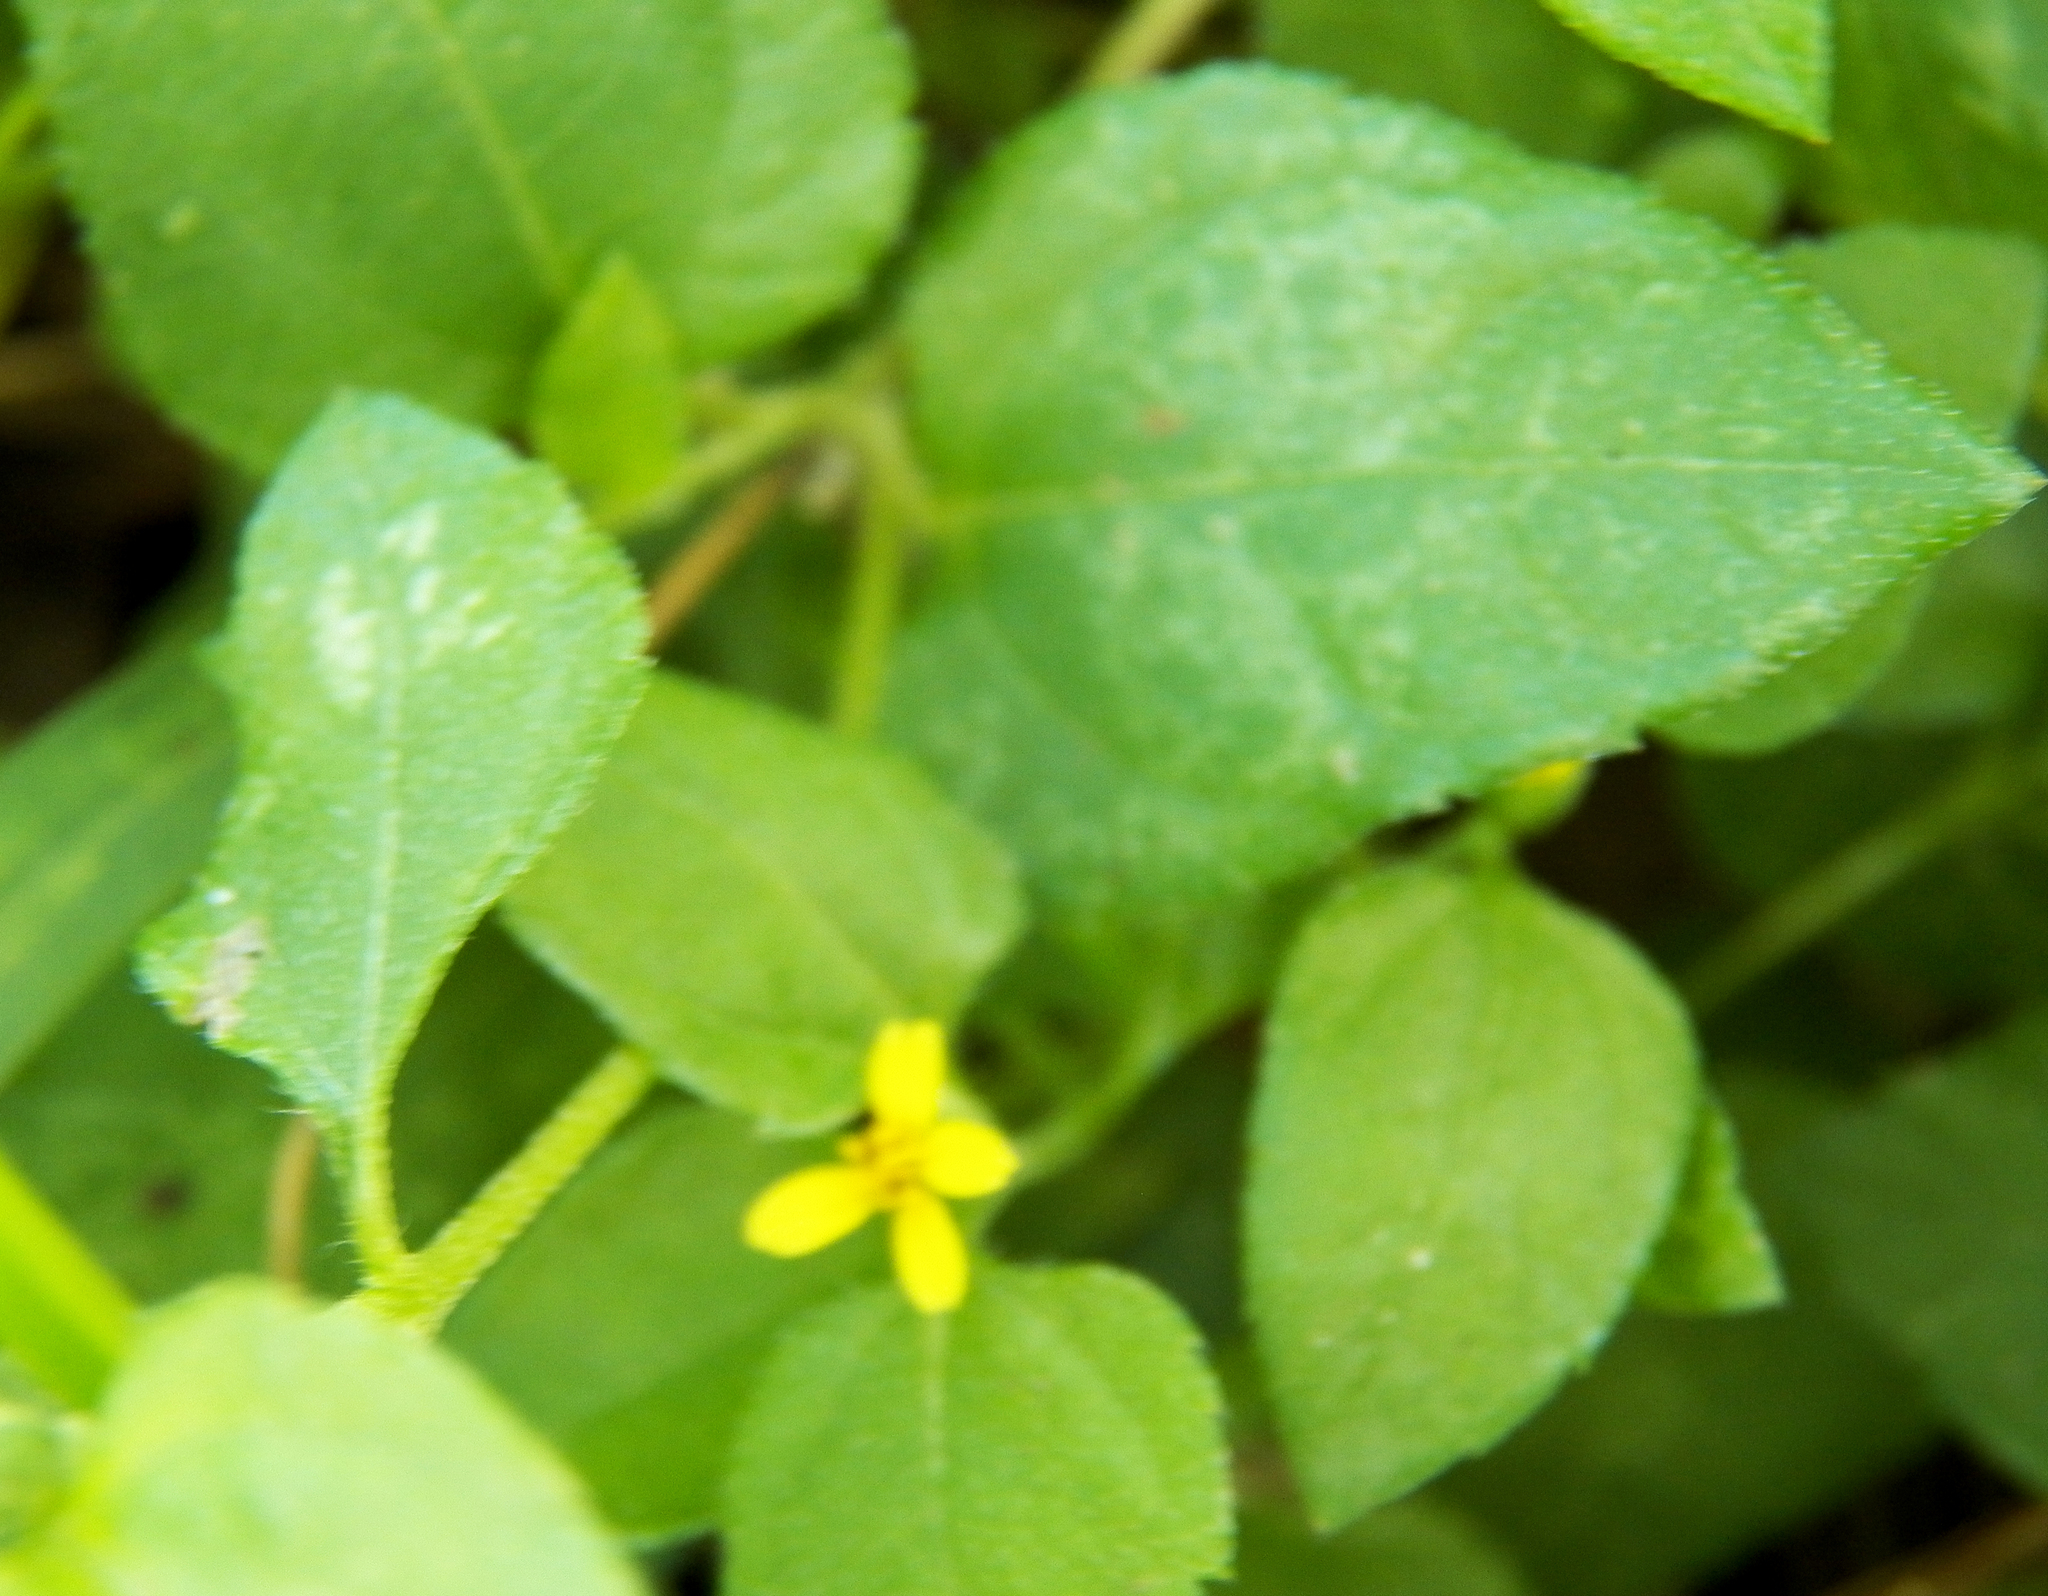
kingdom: Plantae
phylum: Tracheophyta
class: Magnoliopsida
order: Asterales
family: Asteraceae
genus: Calyptocarpus
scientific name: Calyptocarpus vialis
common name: Straggler daisy
